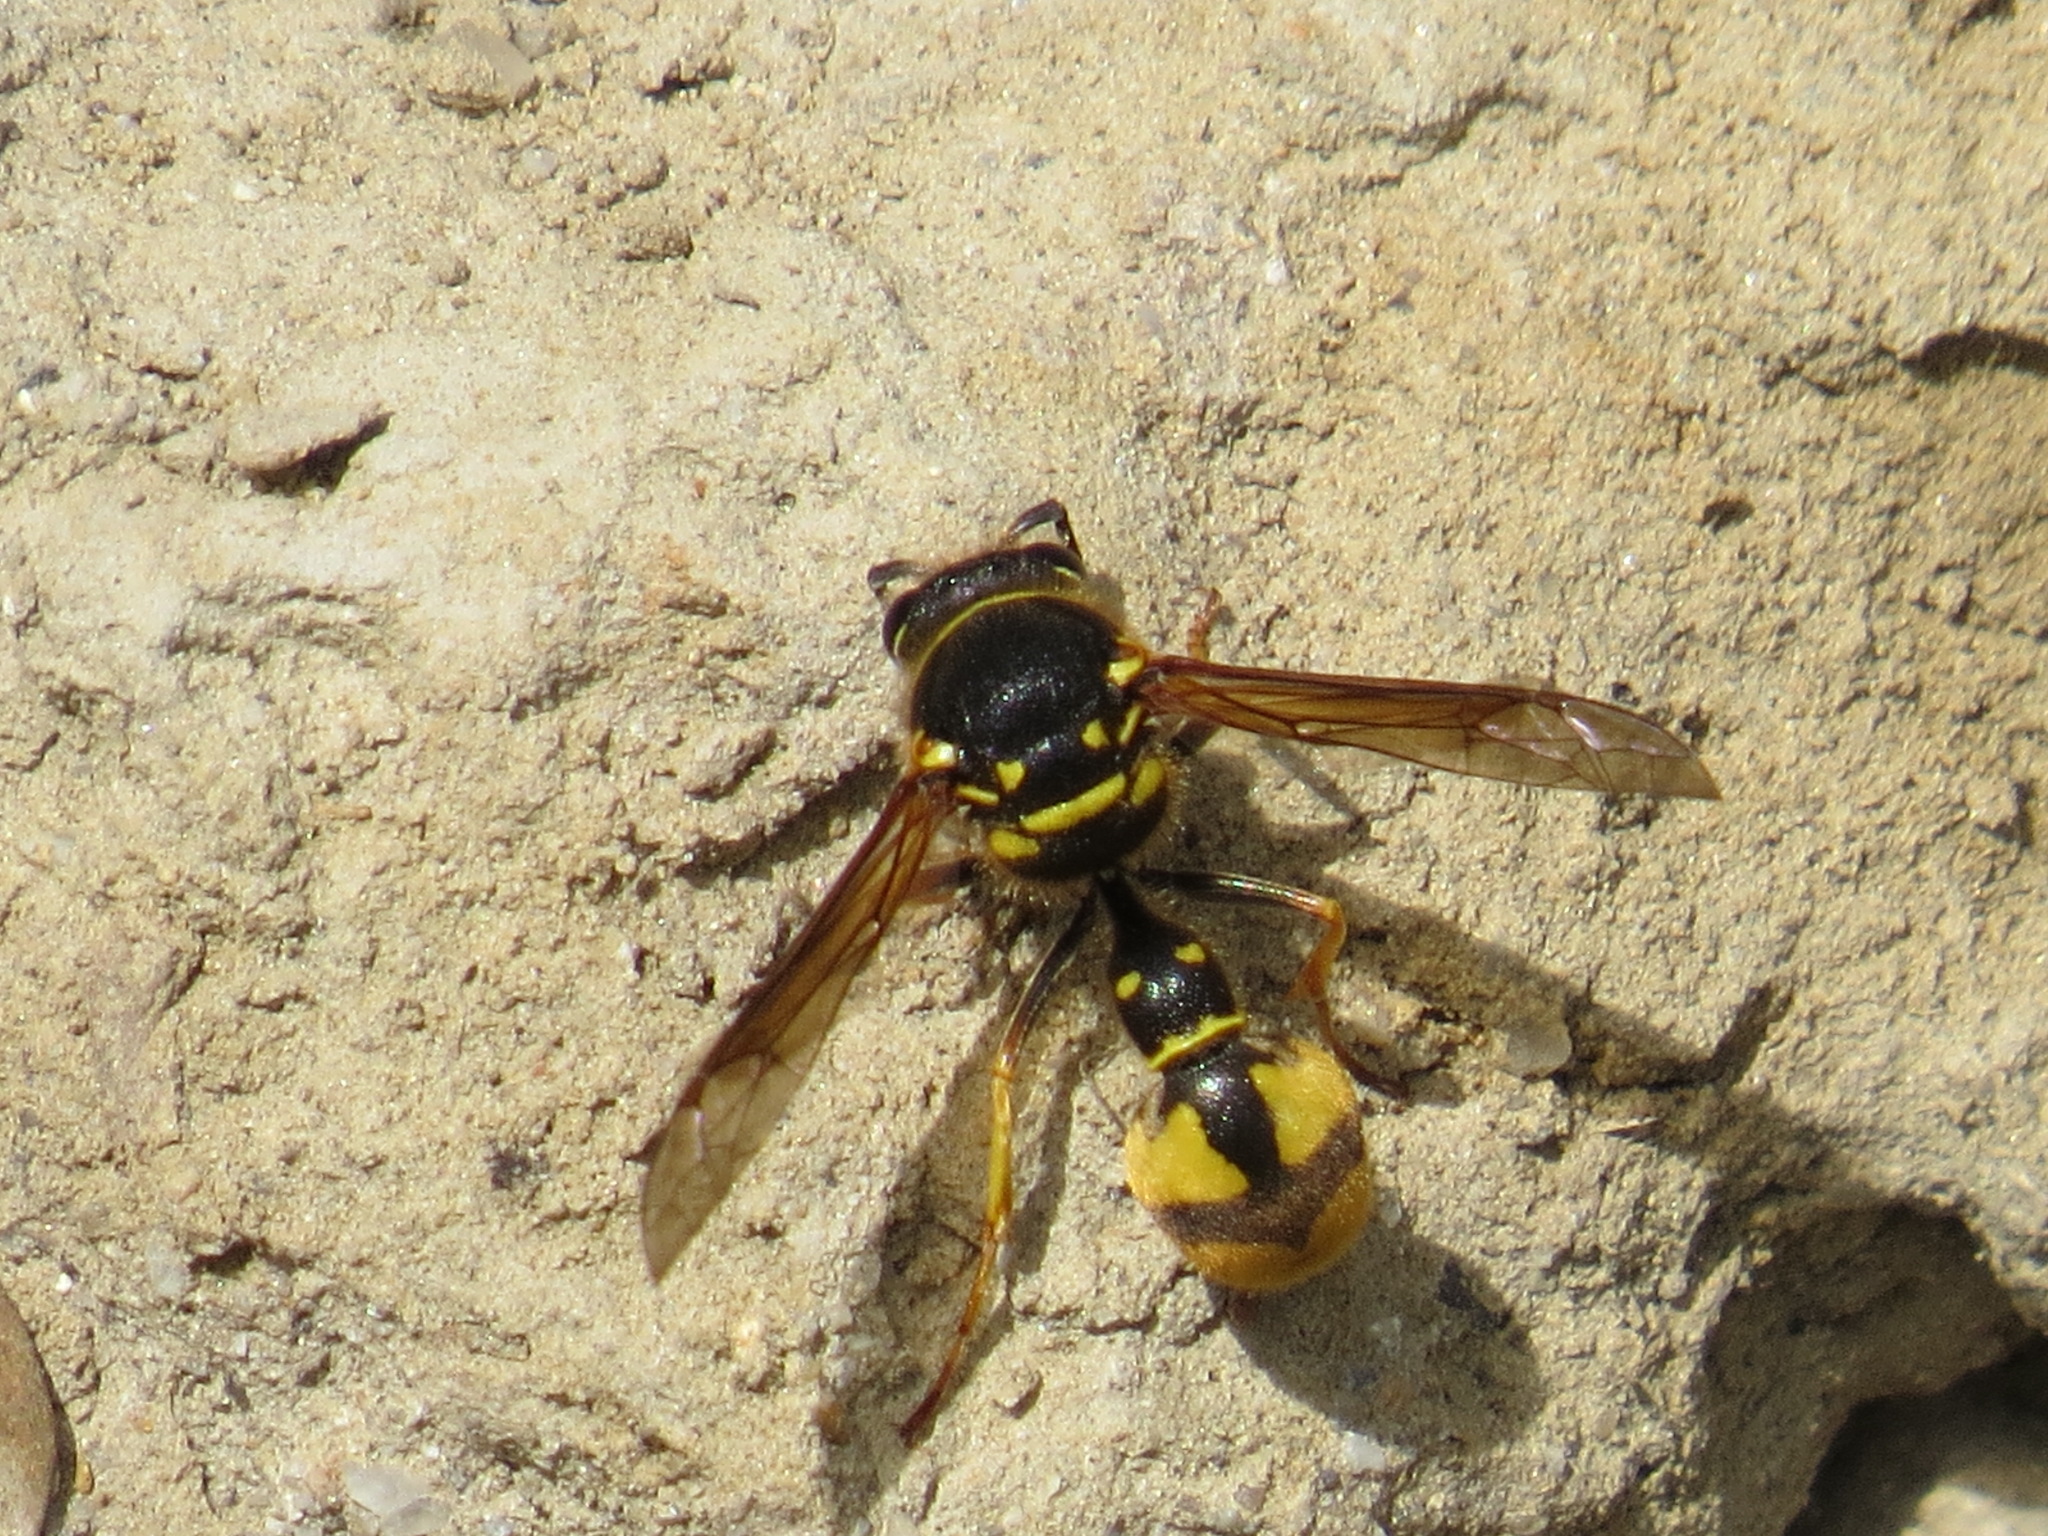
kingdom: Animalia
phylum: Arthropoda
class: Insecta
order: Hymenoptera
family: Vespidae
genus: Eumenes
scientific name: Eumenes crucifera
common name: Cross potter wasp
